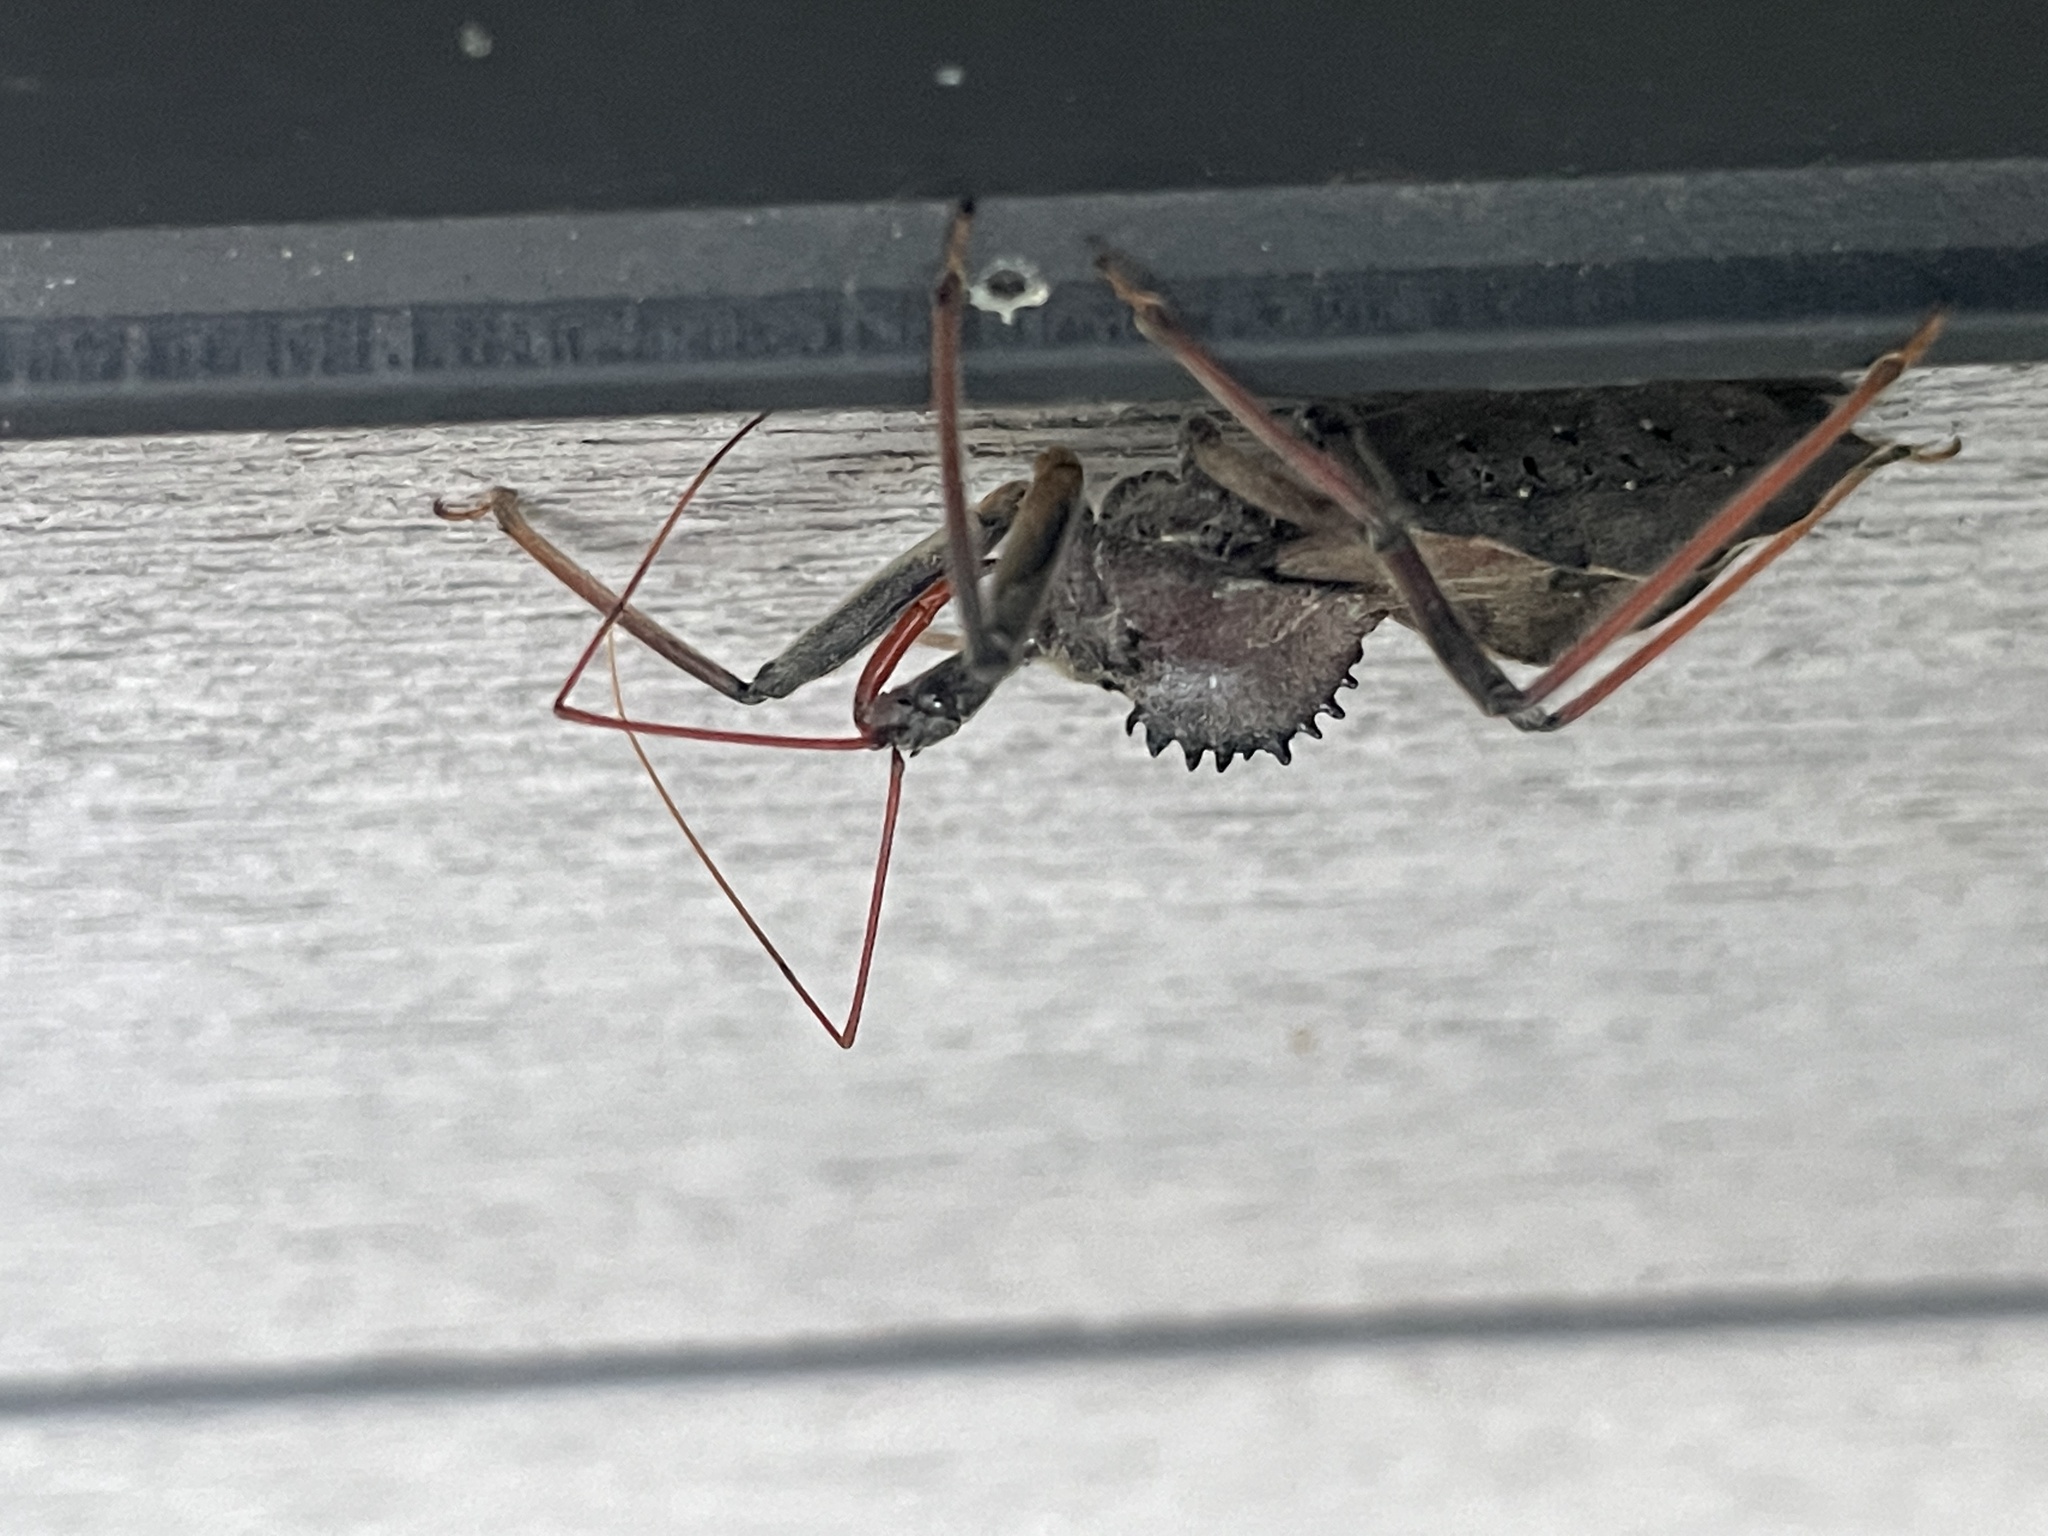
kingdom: Animalia
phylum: Arthropoda
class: Insecta
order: Hemiptera
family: Reduviidae
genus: Arilus
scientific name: Arilus cristatus
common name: North american wheel bug
